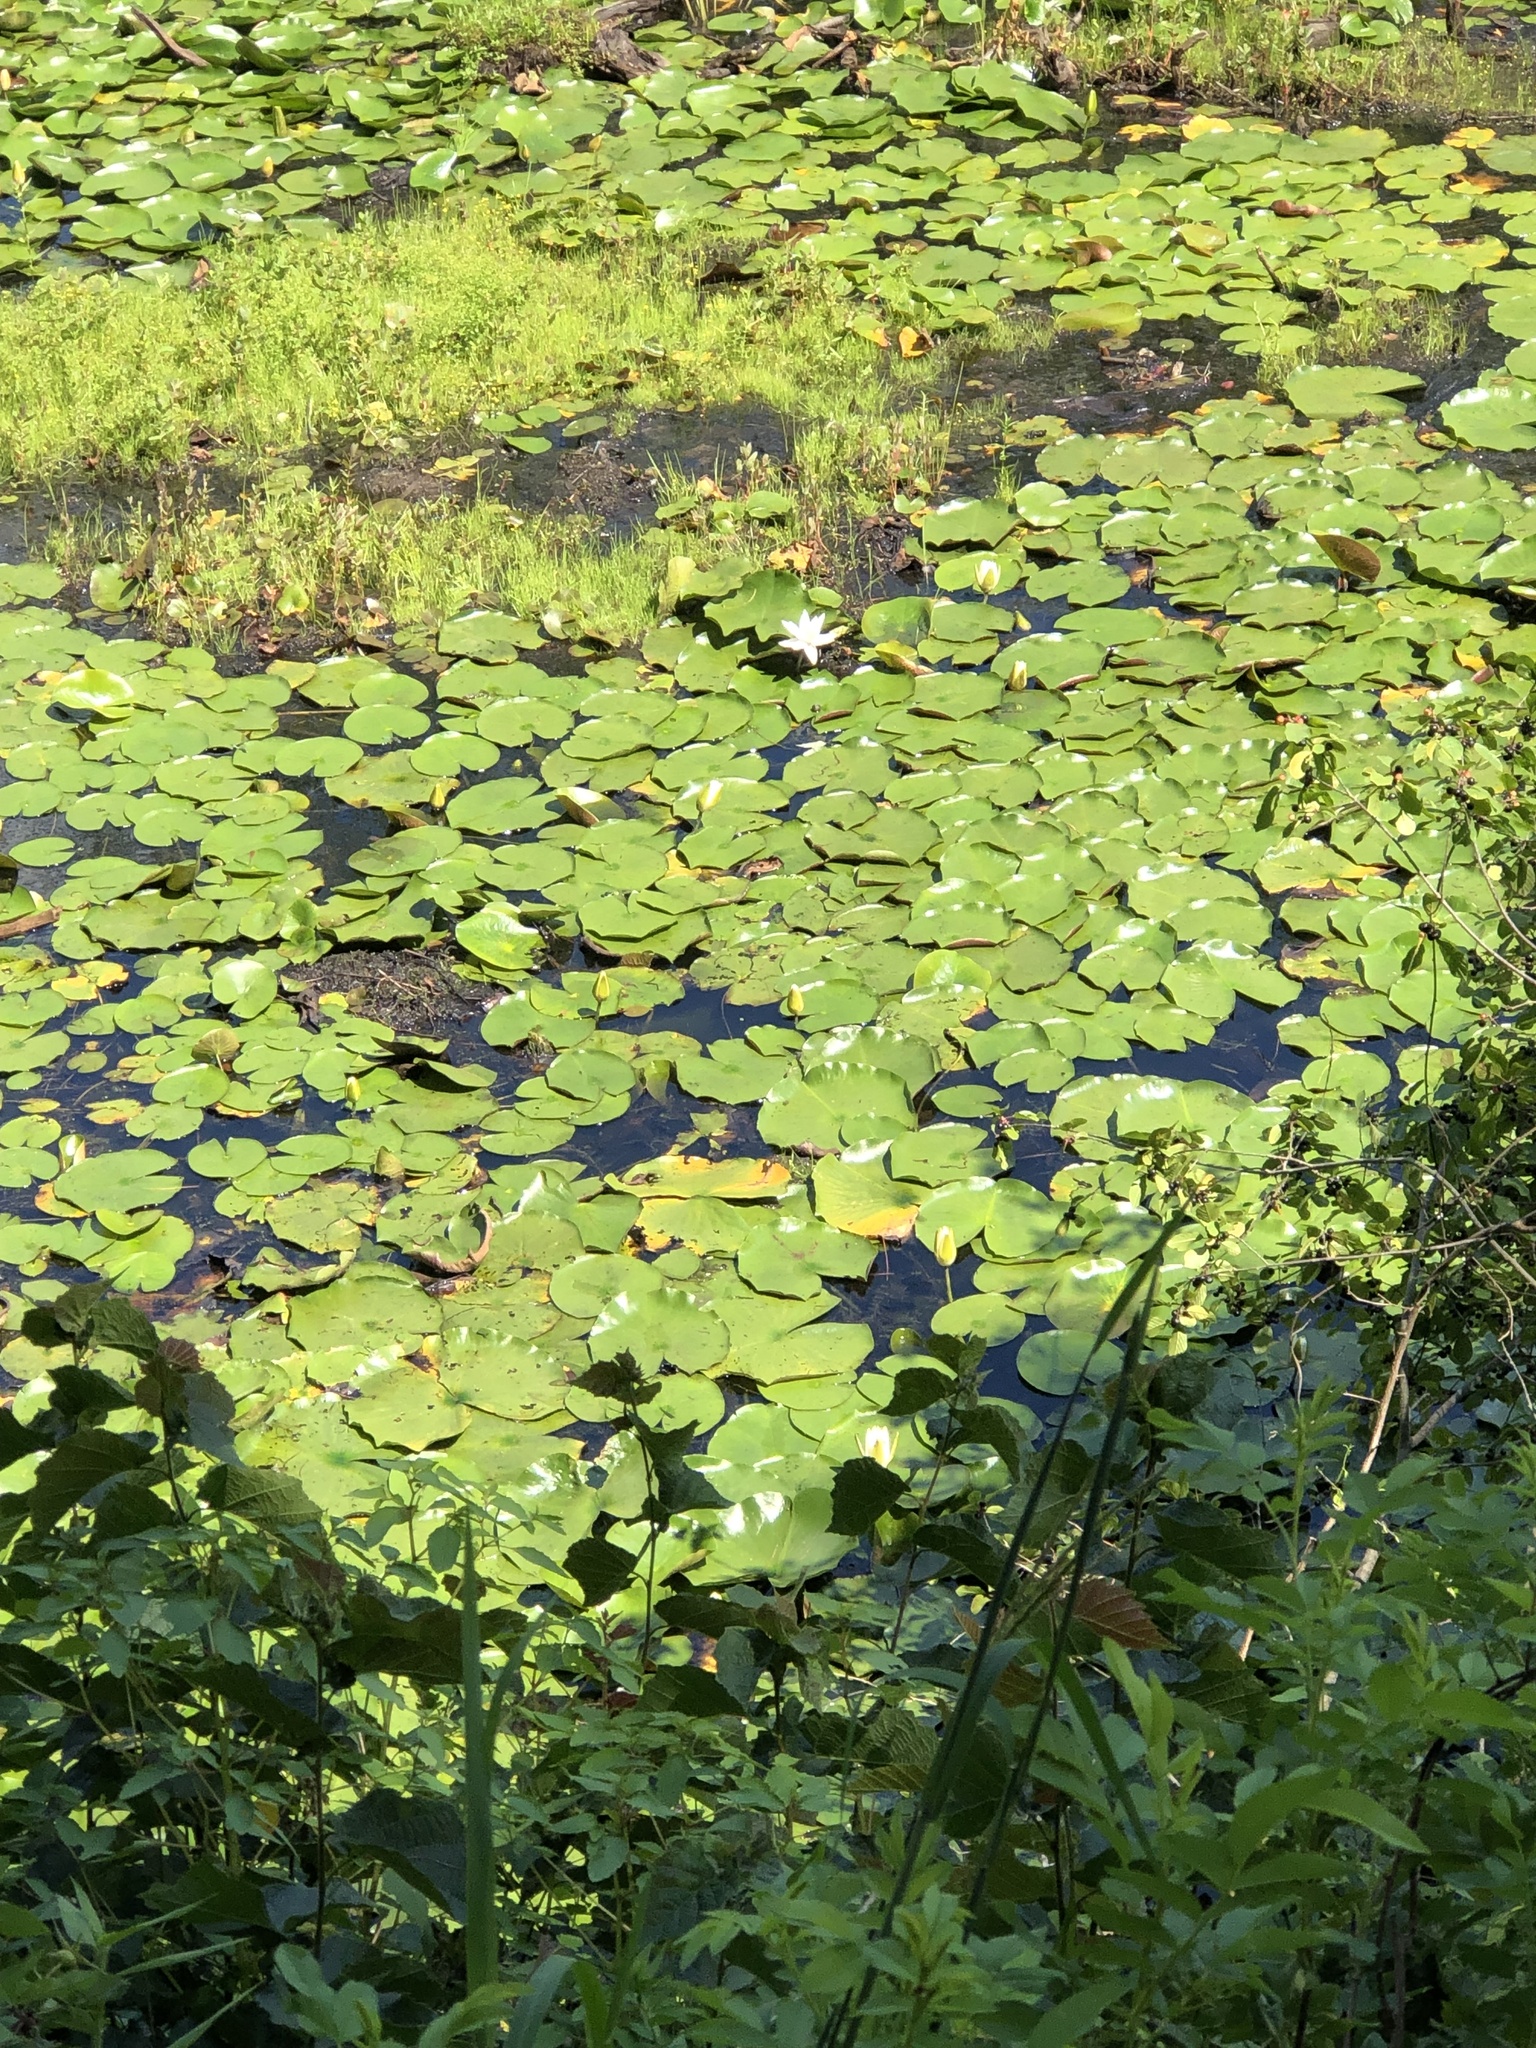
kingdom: Plantae
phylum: Tracheophyta
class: Magnoliopsida
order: Nymphaeales
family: Nymphaeaceae
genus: Nymphaea
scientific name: Nymphaea odorata
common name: Fragrant water-lily
